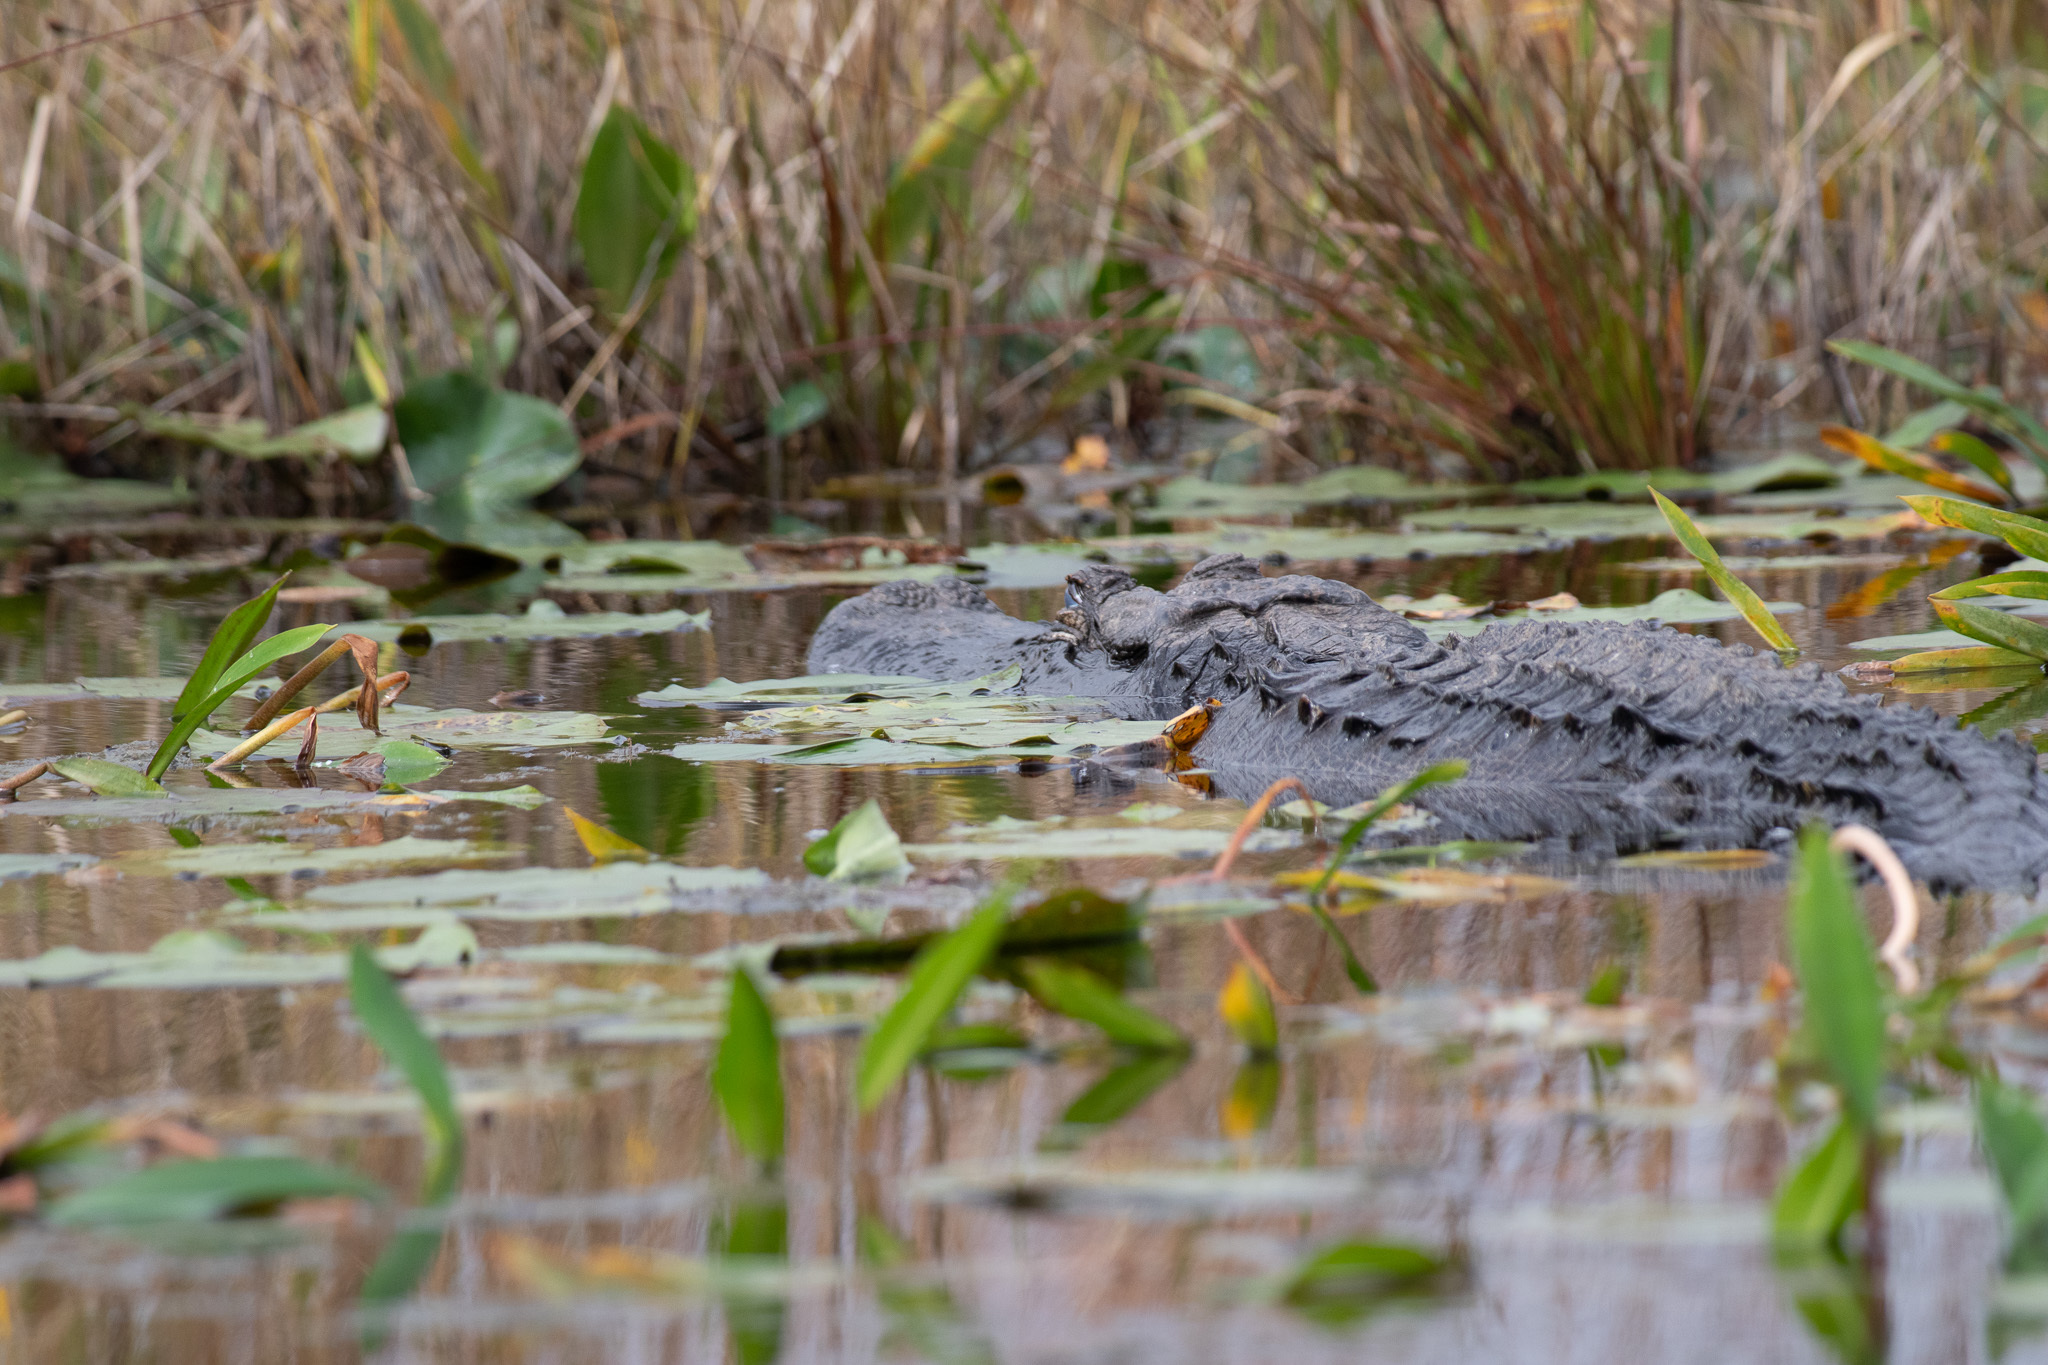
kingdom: Animalia
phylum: Chordata
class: Crocodylia
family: Alligatoridae
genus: Alligator
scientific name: Alligator mississippiensis
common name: American alligator
